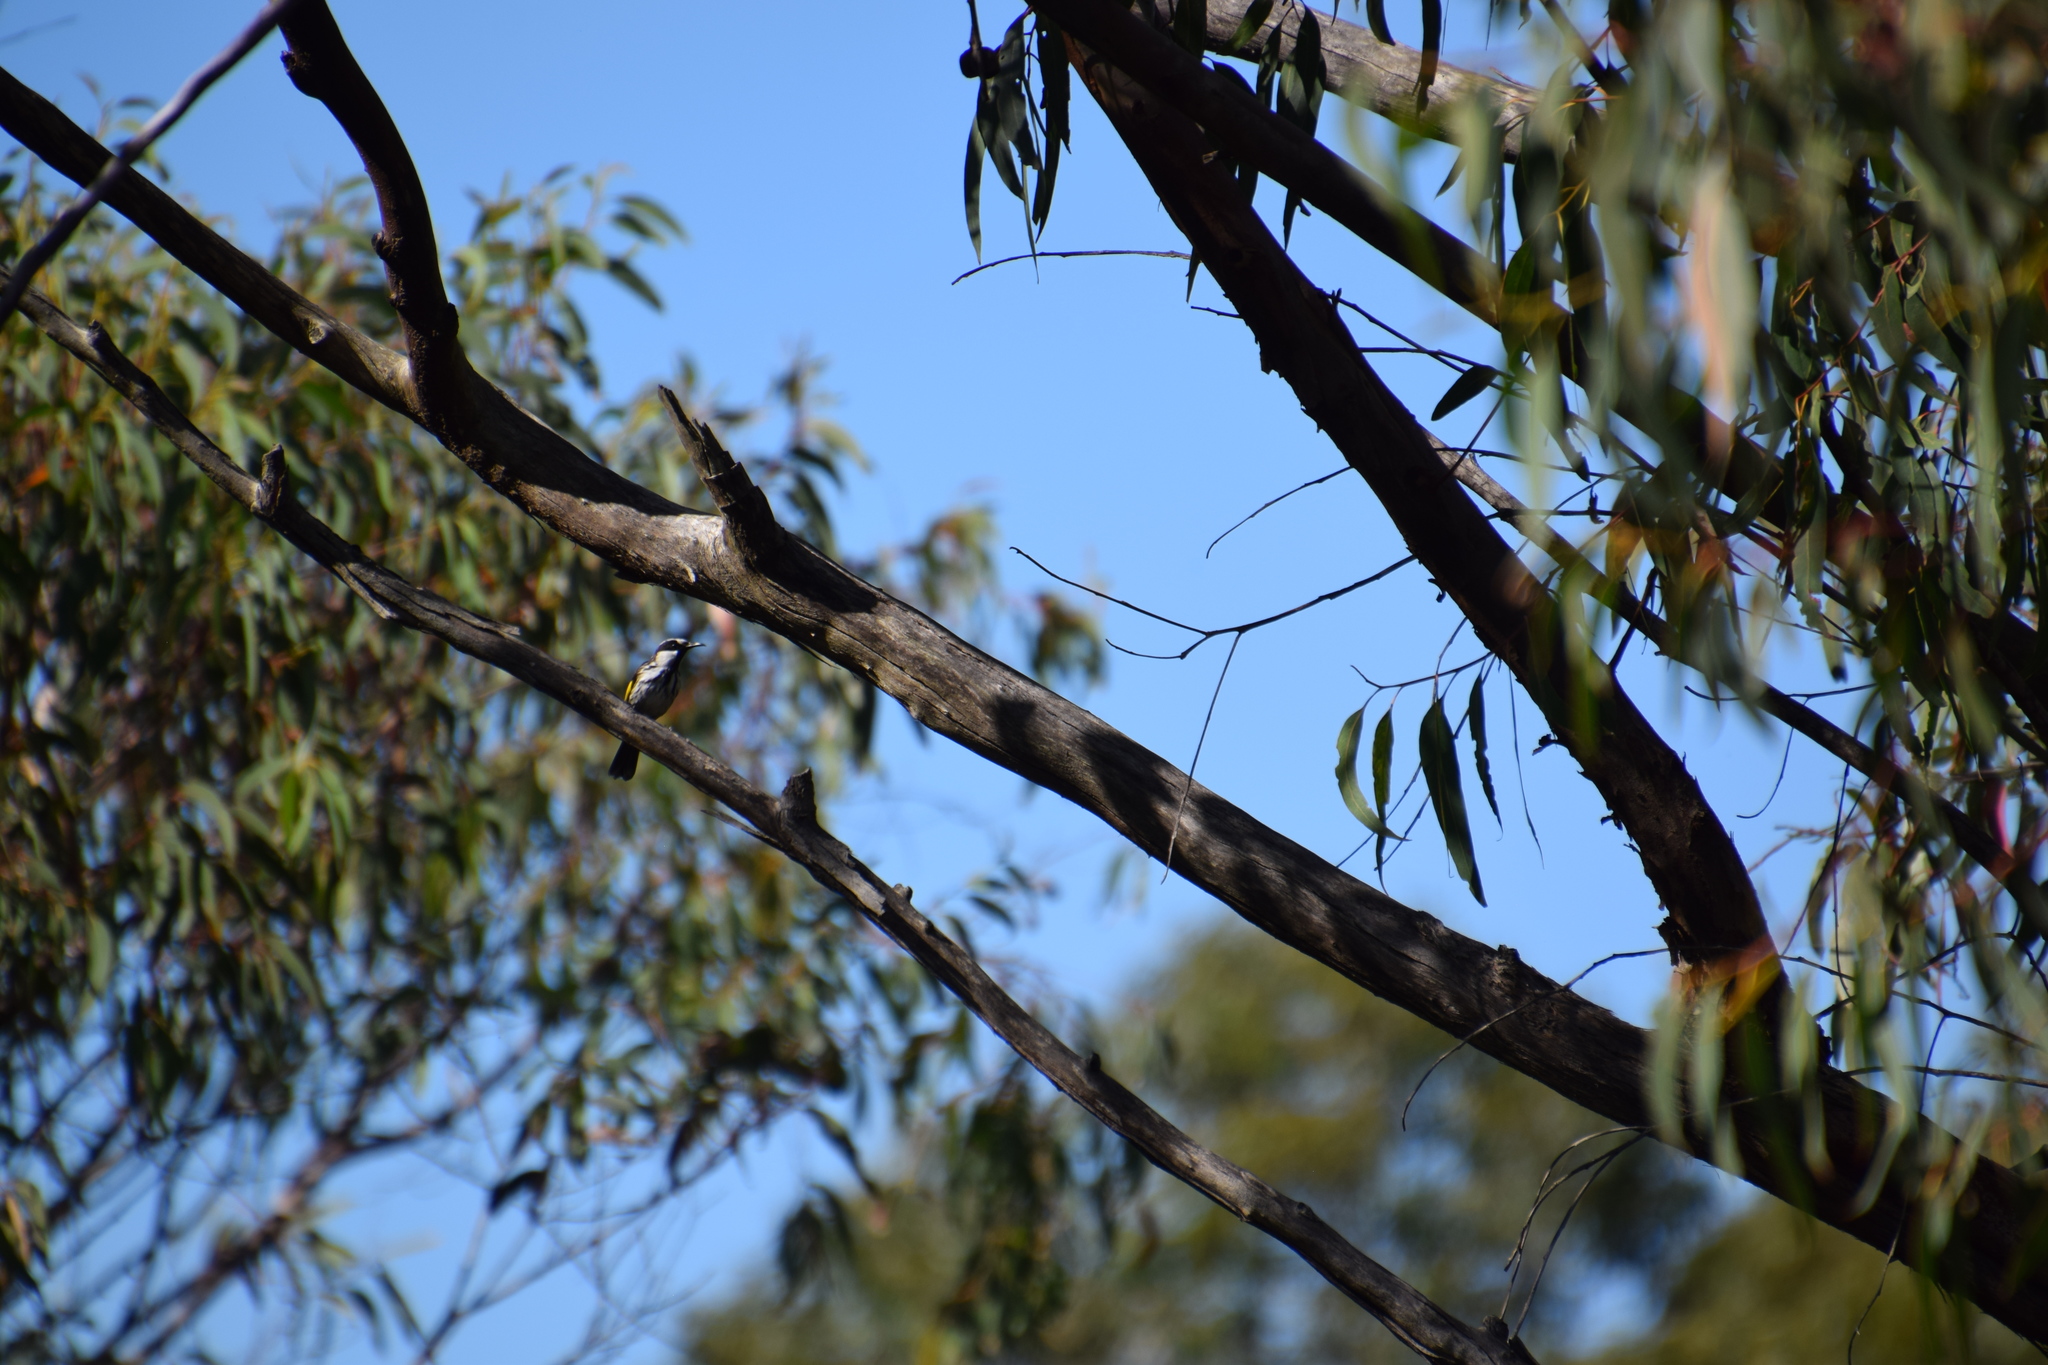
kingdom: Animalia
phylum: Chordata
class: Aves
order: Passeriformes
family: Meliphagidae
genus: Phylidonyris
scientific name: Phylidonyris niger
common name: White-cheeked honeyeater
